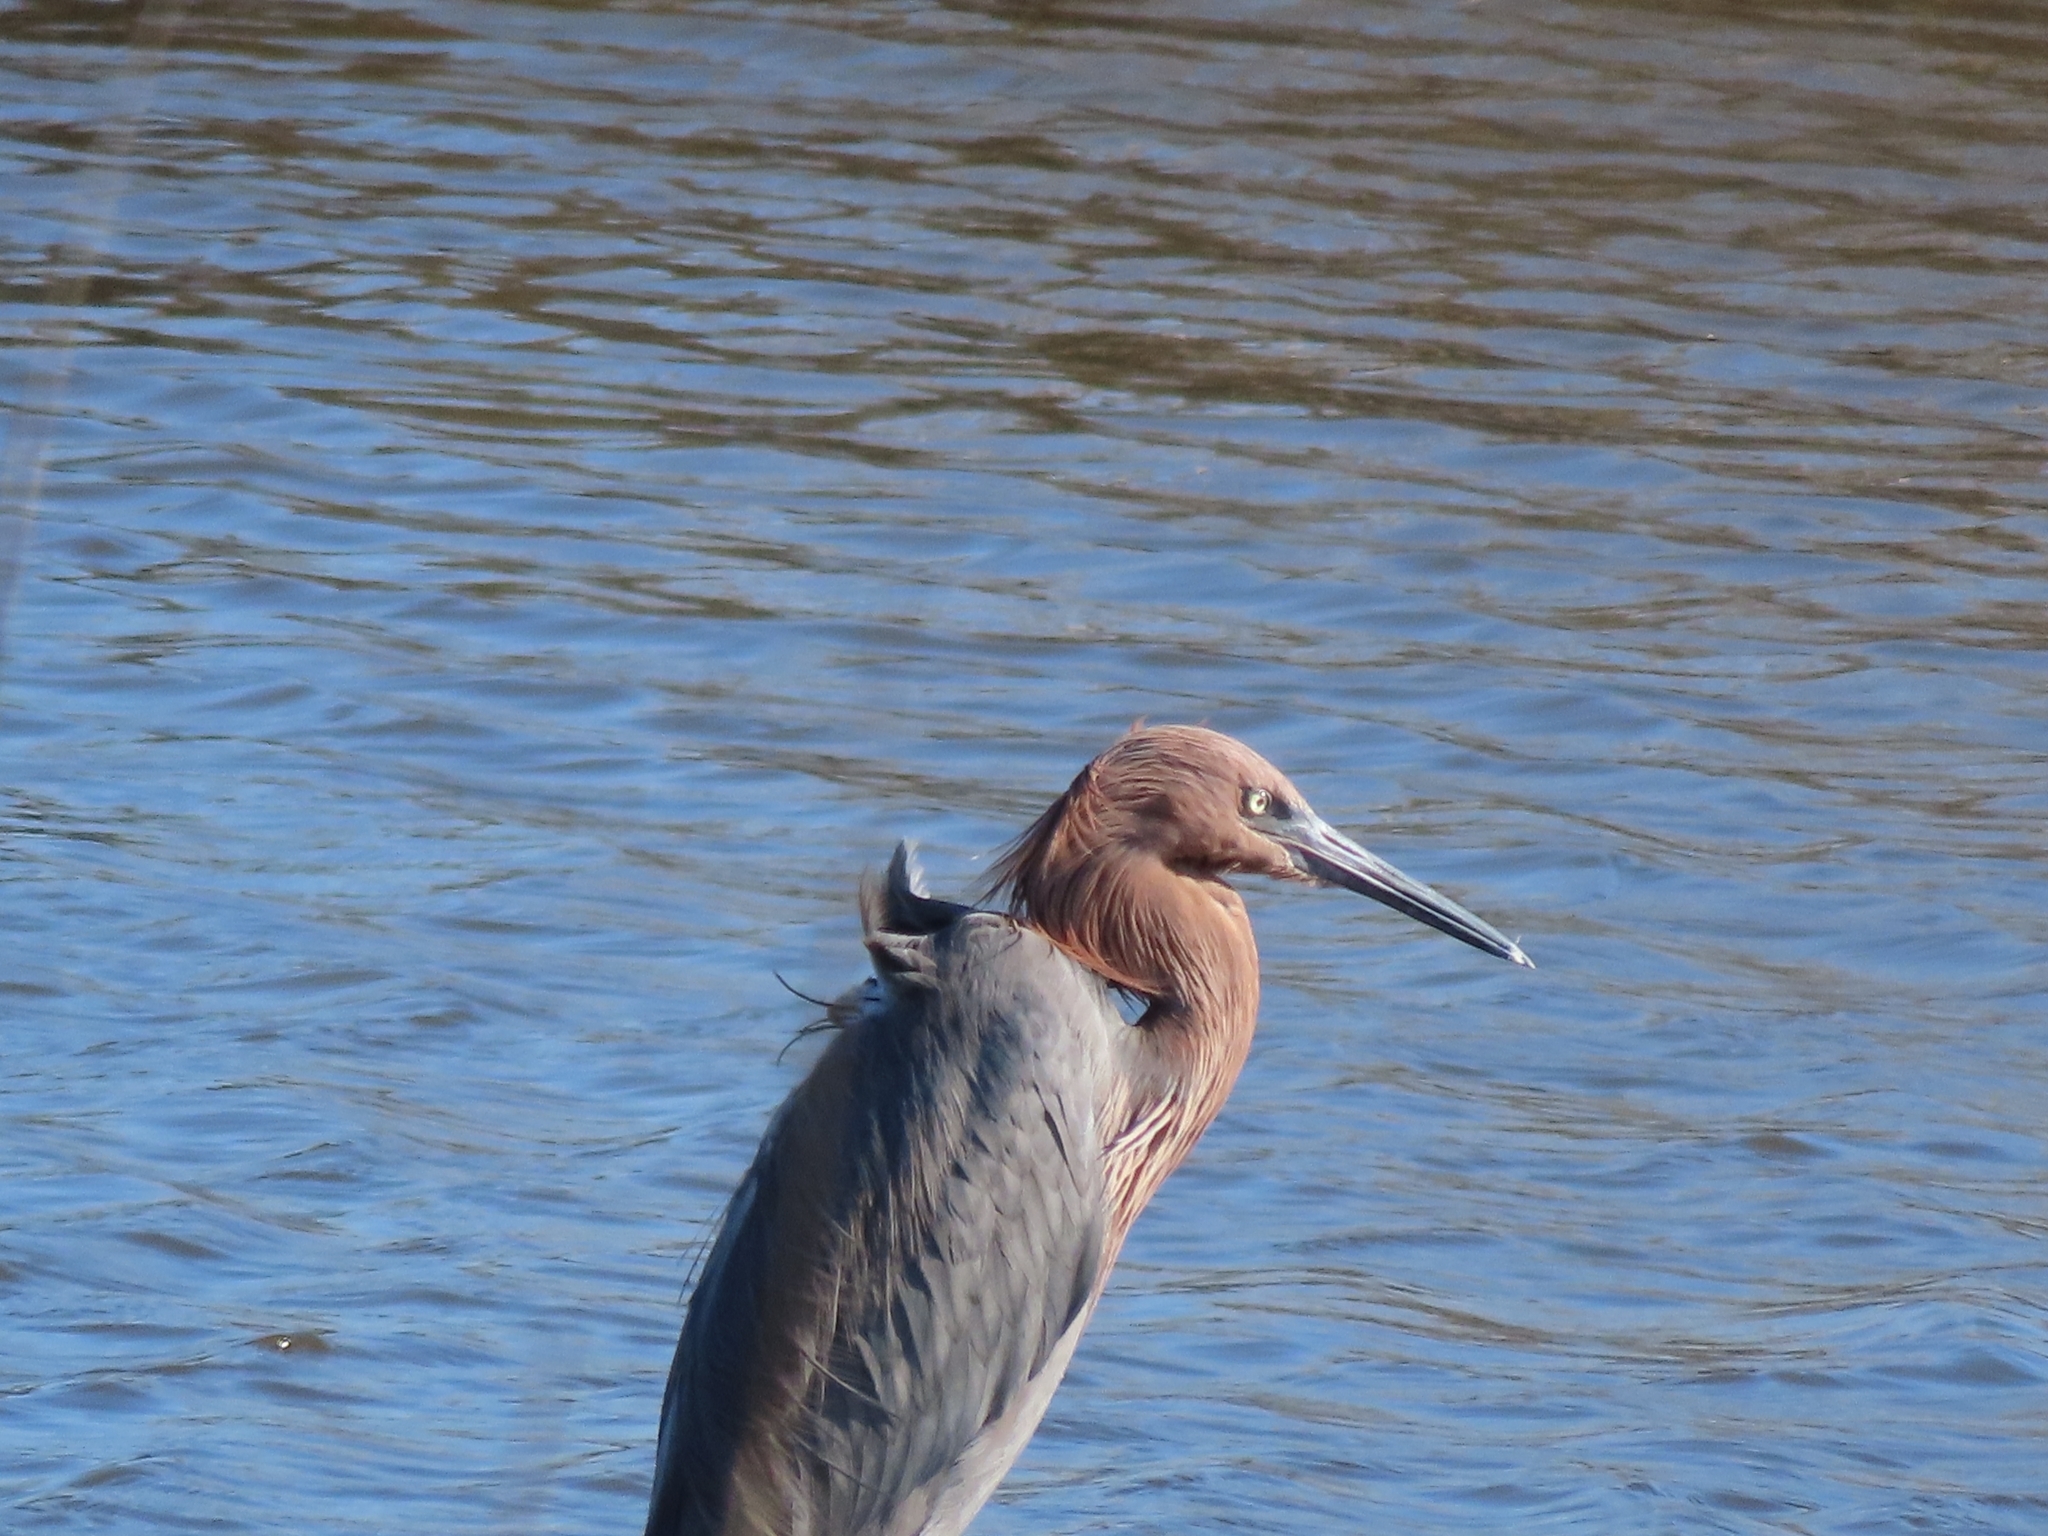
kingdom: Animalia
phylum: Chordata
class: Aves
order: Pelecaniformes
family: Ardeidae
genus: Egretta
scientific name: Egretta rufescens
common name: Reddish egret
